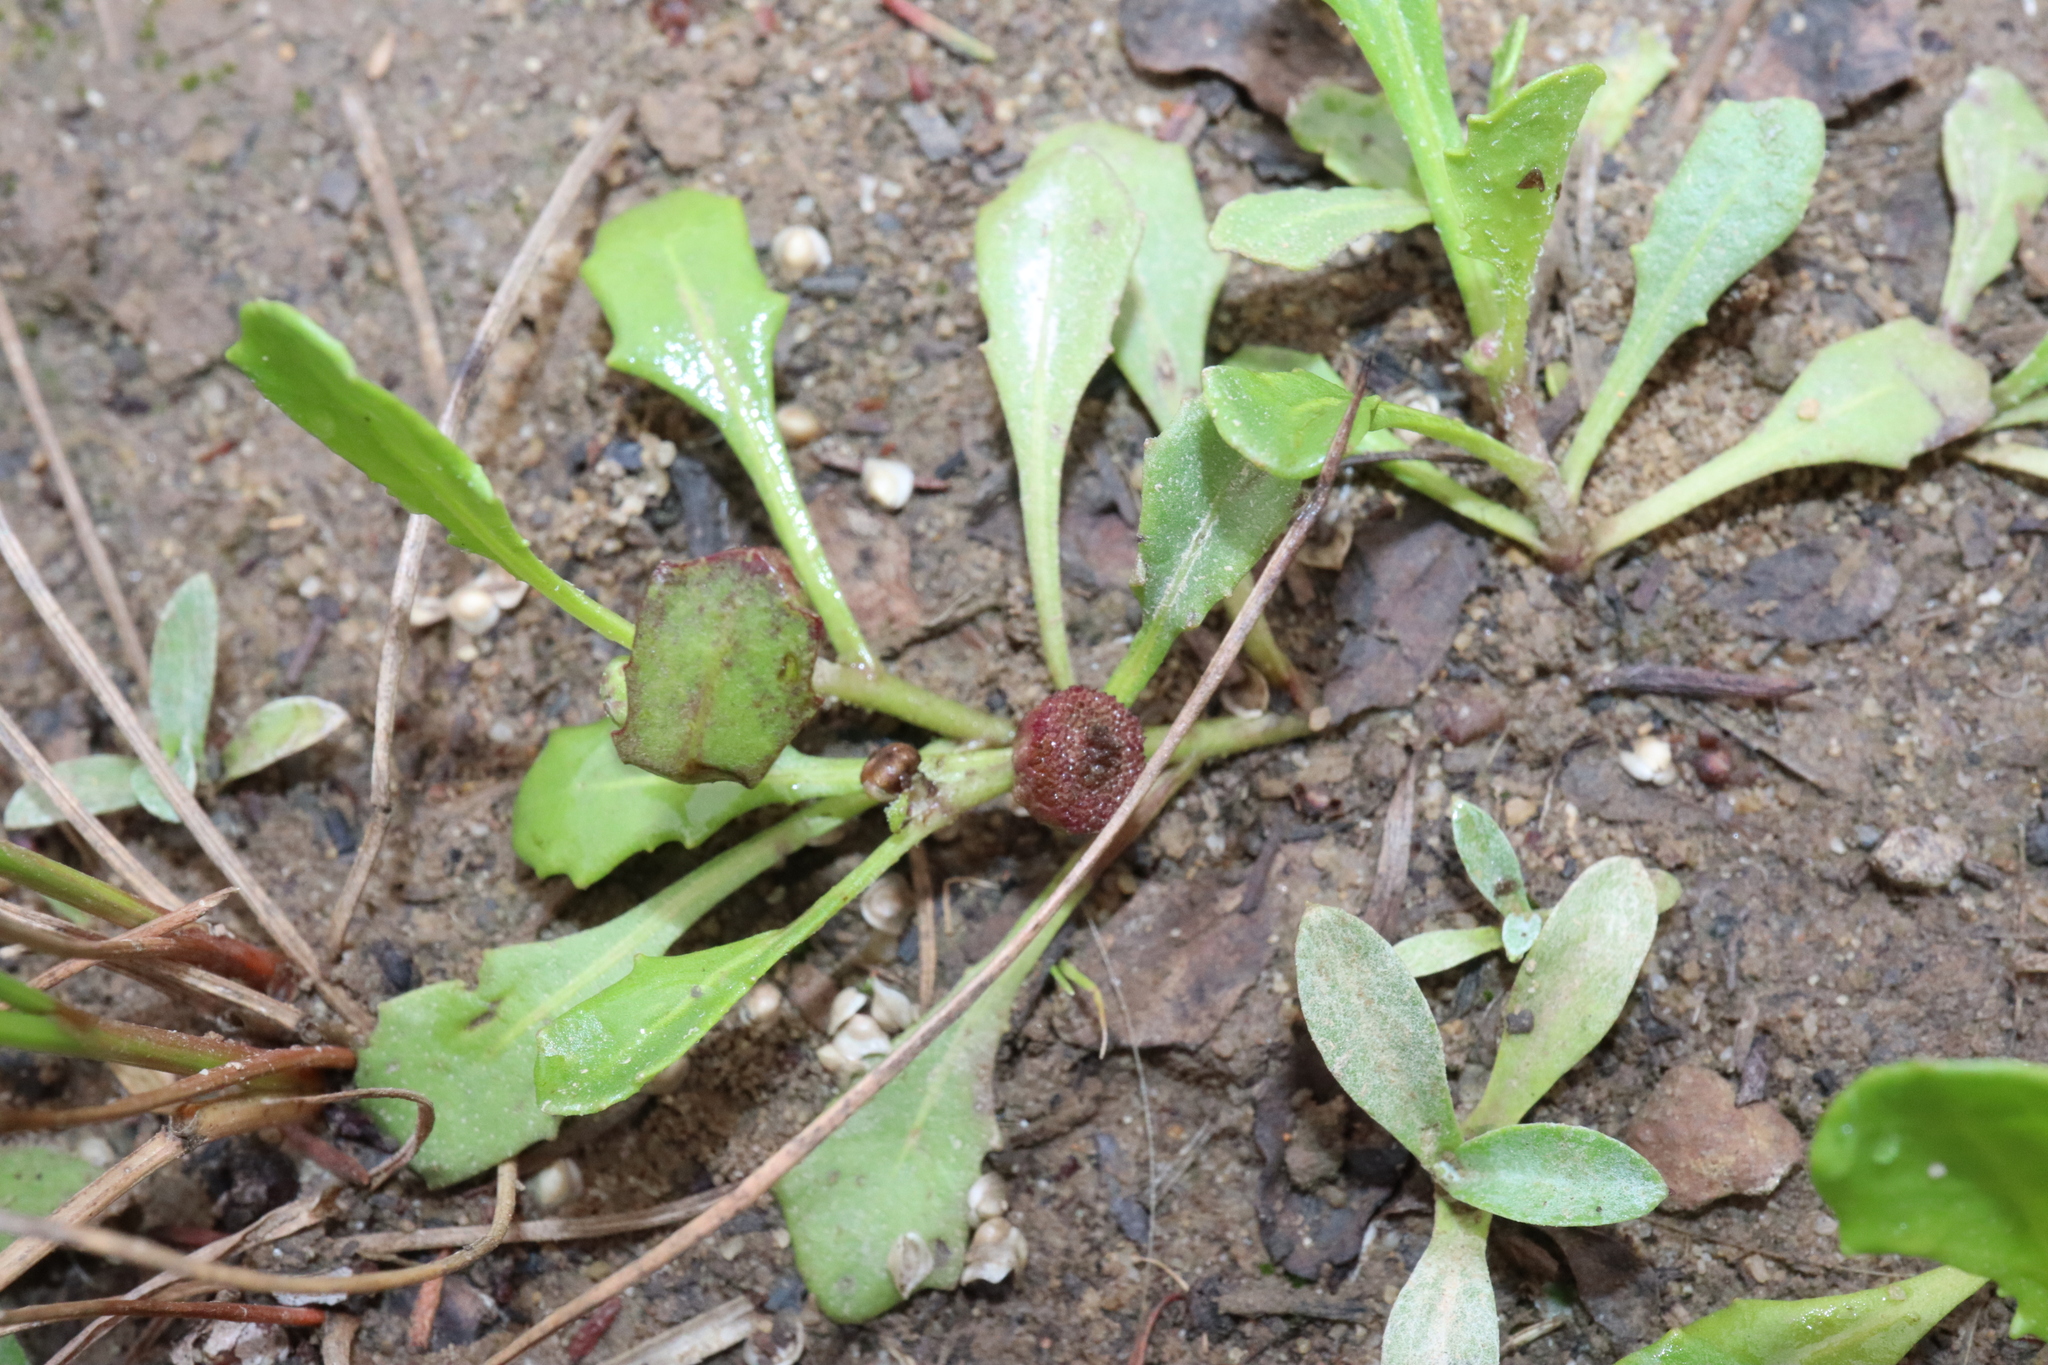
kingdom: Plantae
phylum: Tracheophyta
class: Magnoliopsida
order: Asterales
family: Asteraceae
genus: Sphaeromorphaea
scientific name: Sphaeromorphaea australis
